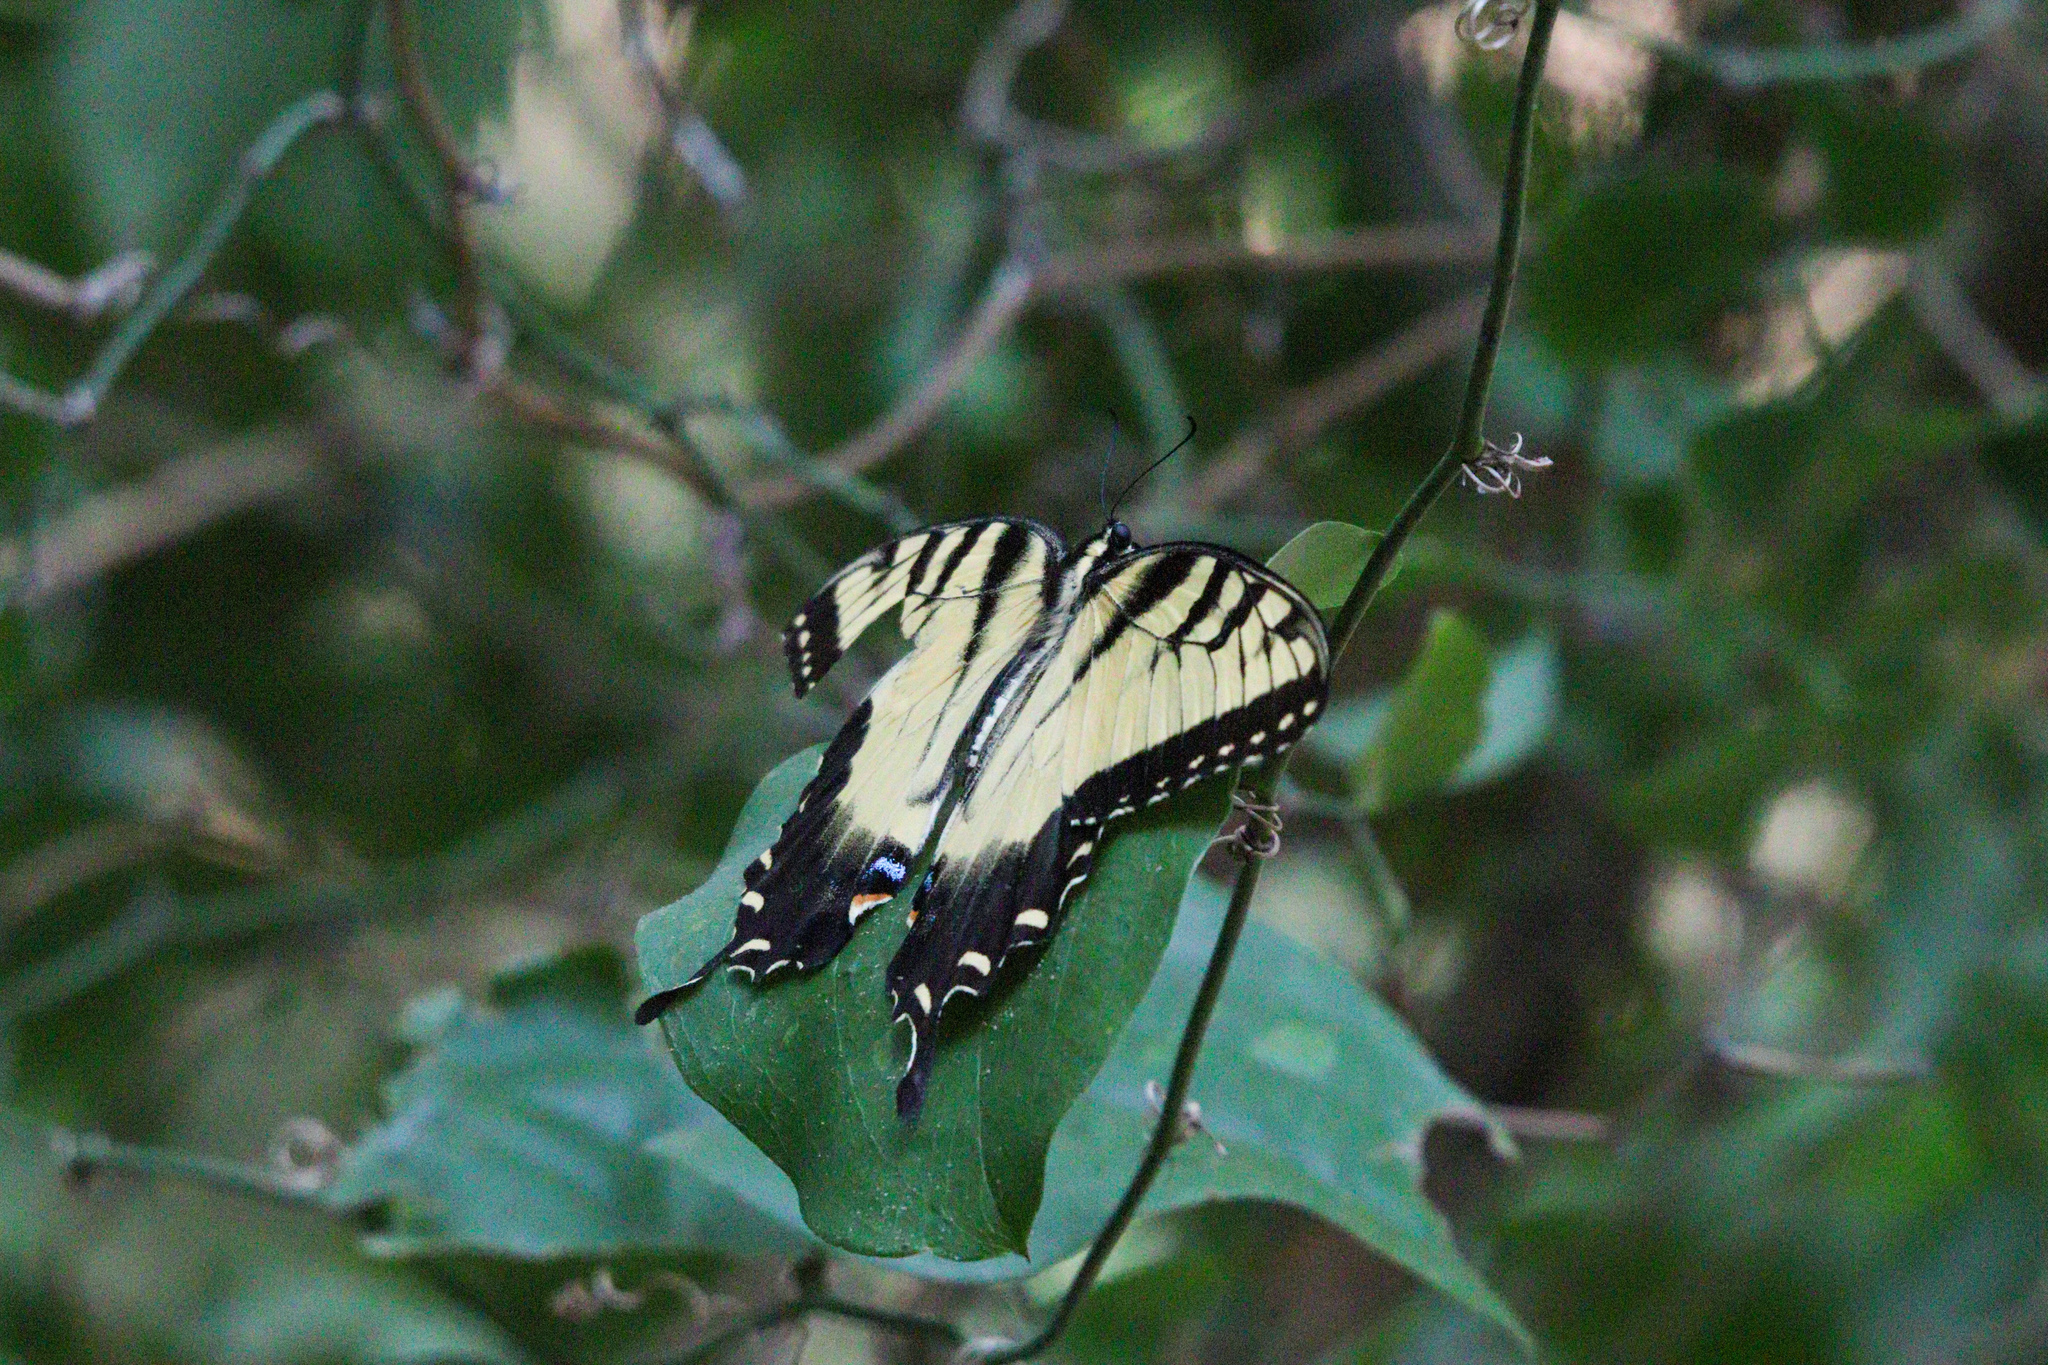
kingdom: Animalia
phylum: Arthropoda
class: Insecta
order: Lepidoptera
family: Papilionidae
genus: Papilio
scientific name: Papilio glaucus
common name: Tiger swallowtail
